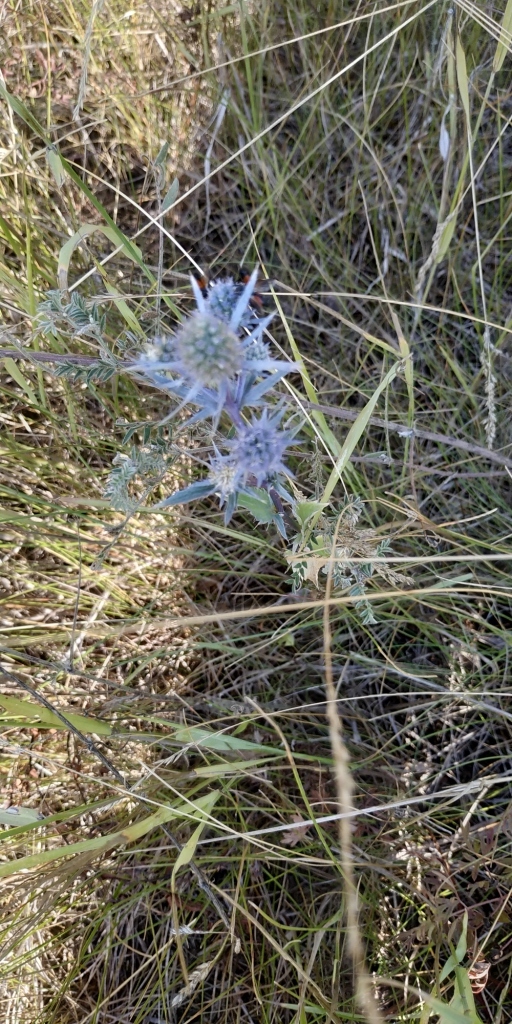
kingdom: Plantae
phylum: Tracheophyta
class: Magnoliopsida
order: Apiales
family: Apiaceae
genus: Eryngium
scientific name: Eryngium planum
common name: Blue eryngo
